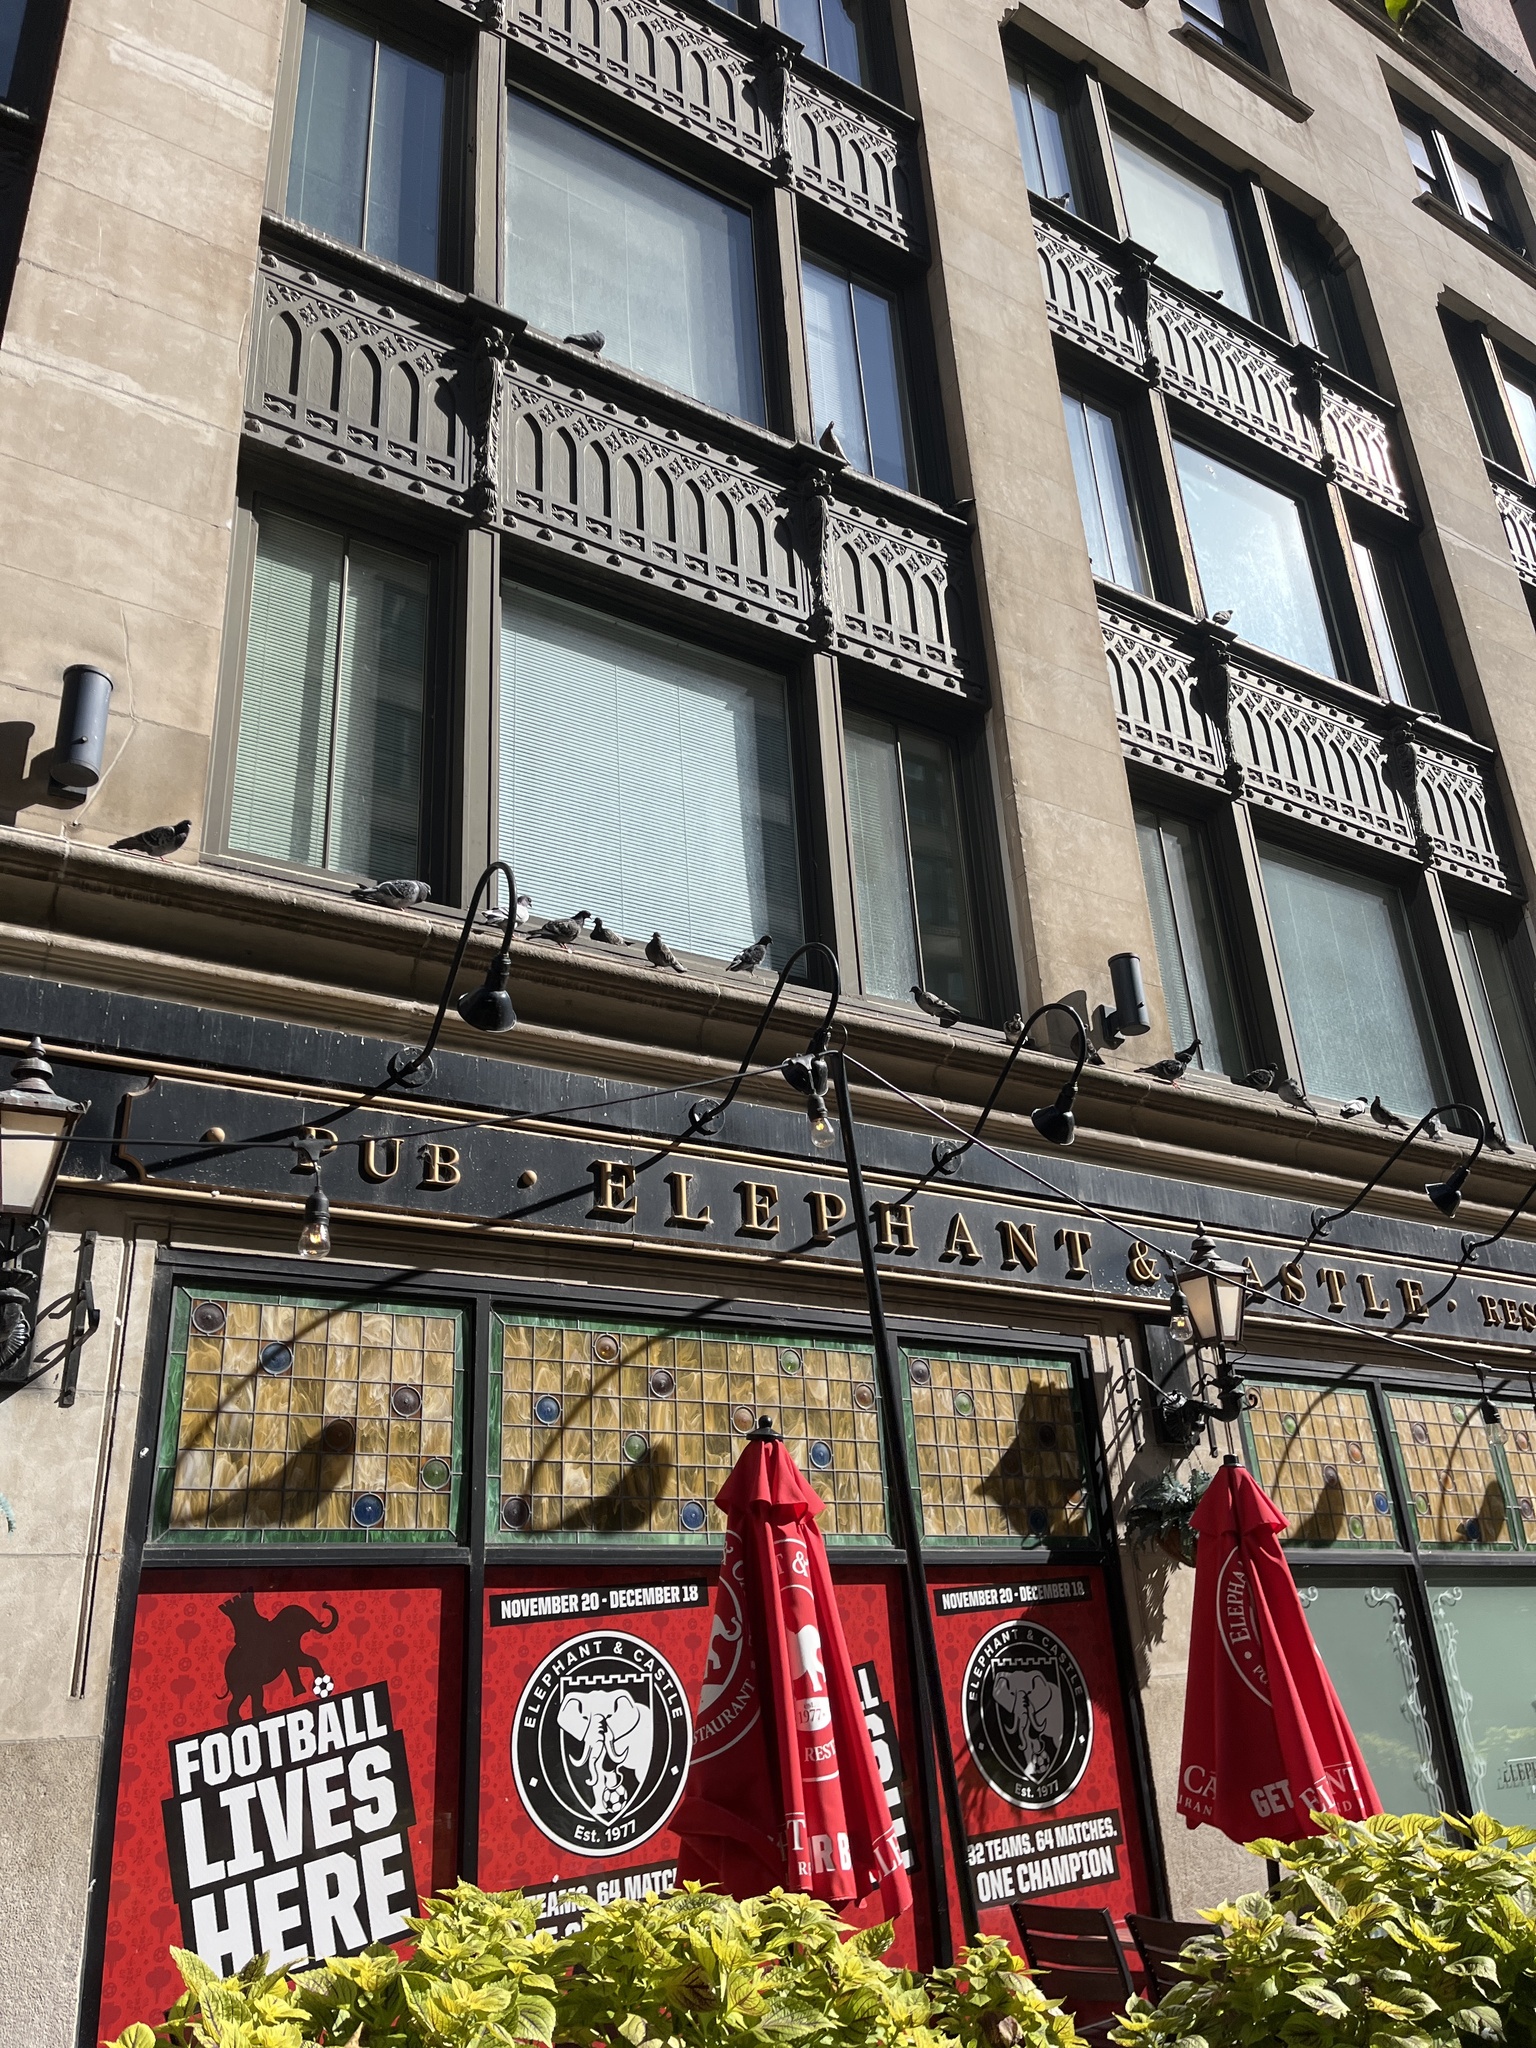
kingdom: Animalia
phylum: Chordata
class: Aves
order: Columbiformes
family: Columbidae
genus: Columba
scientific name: Columba livia
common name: Rock pigeon
